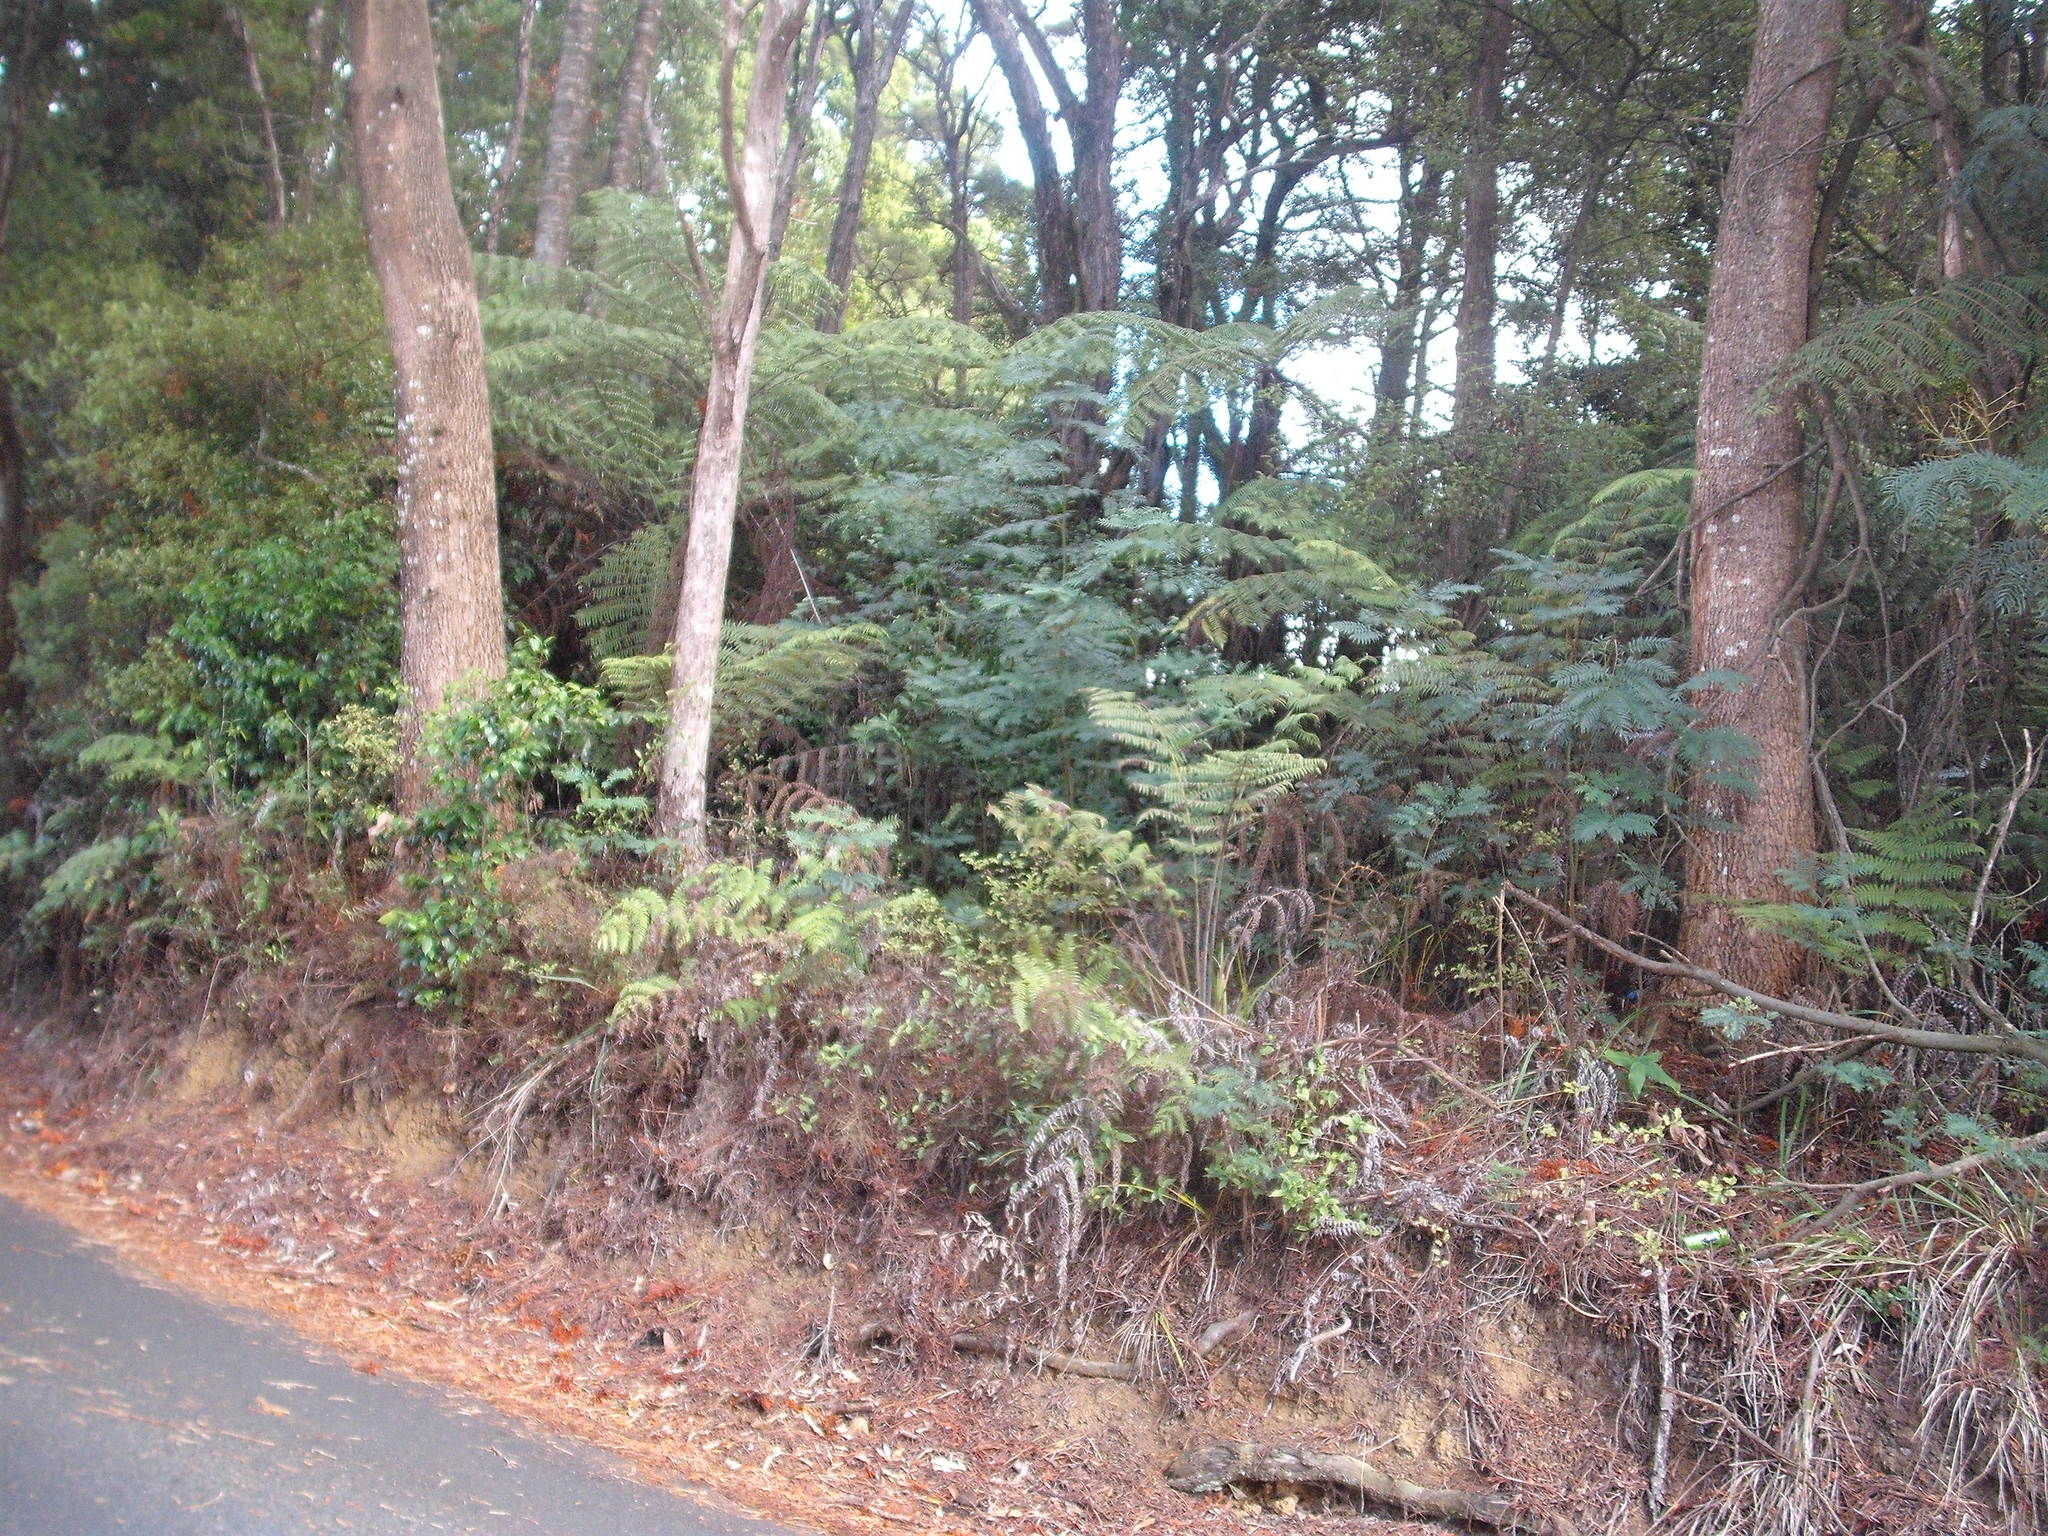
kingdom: Plantae
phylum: Tracheophyta
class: Magnoliopsida
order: Fabales
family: Fabaceae
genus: Acacia
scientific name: Acacia elata
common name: Cedar wattle
